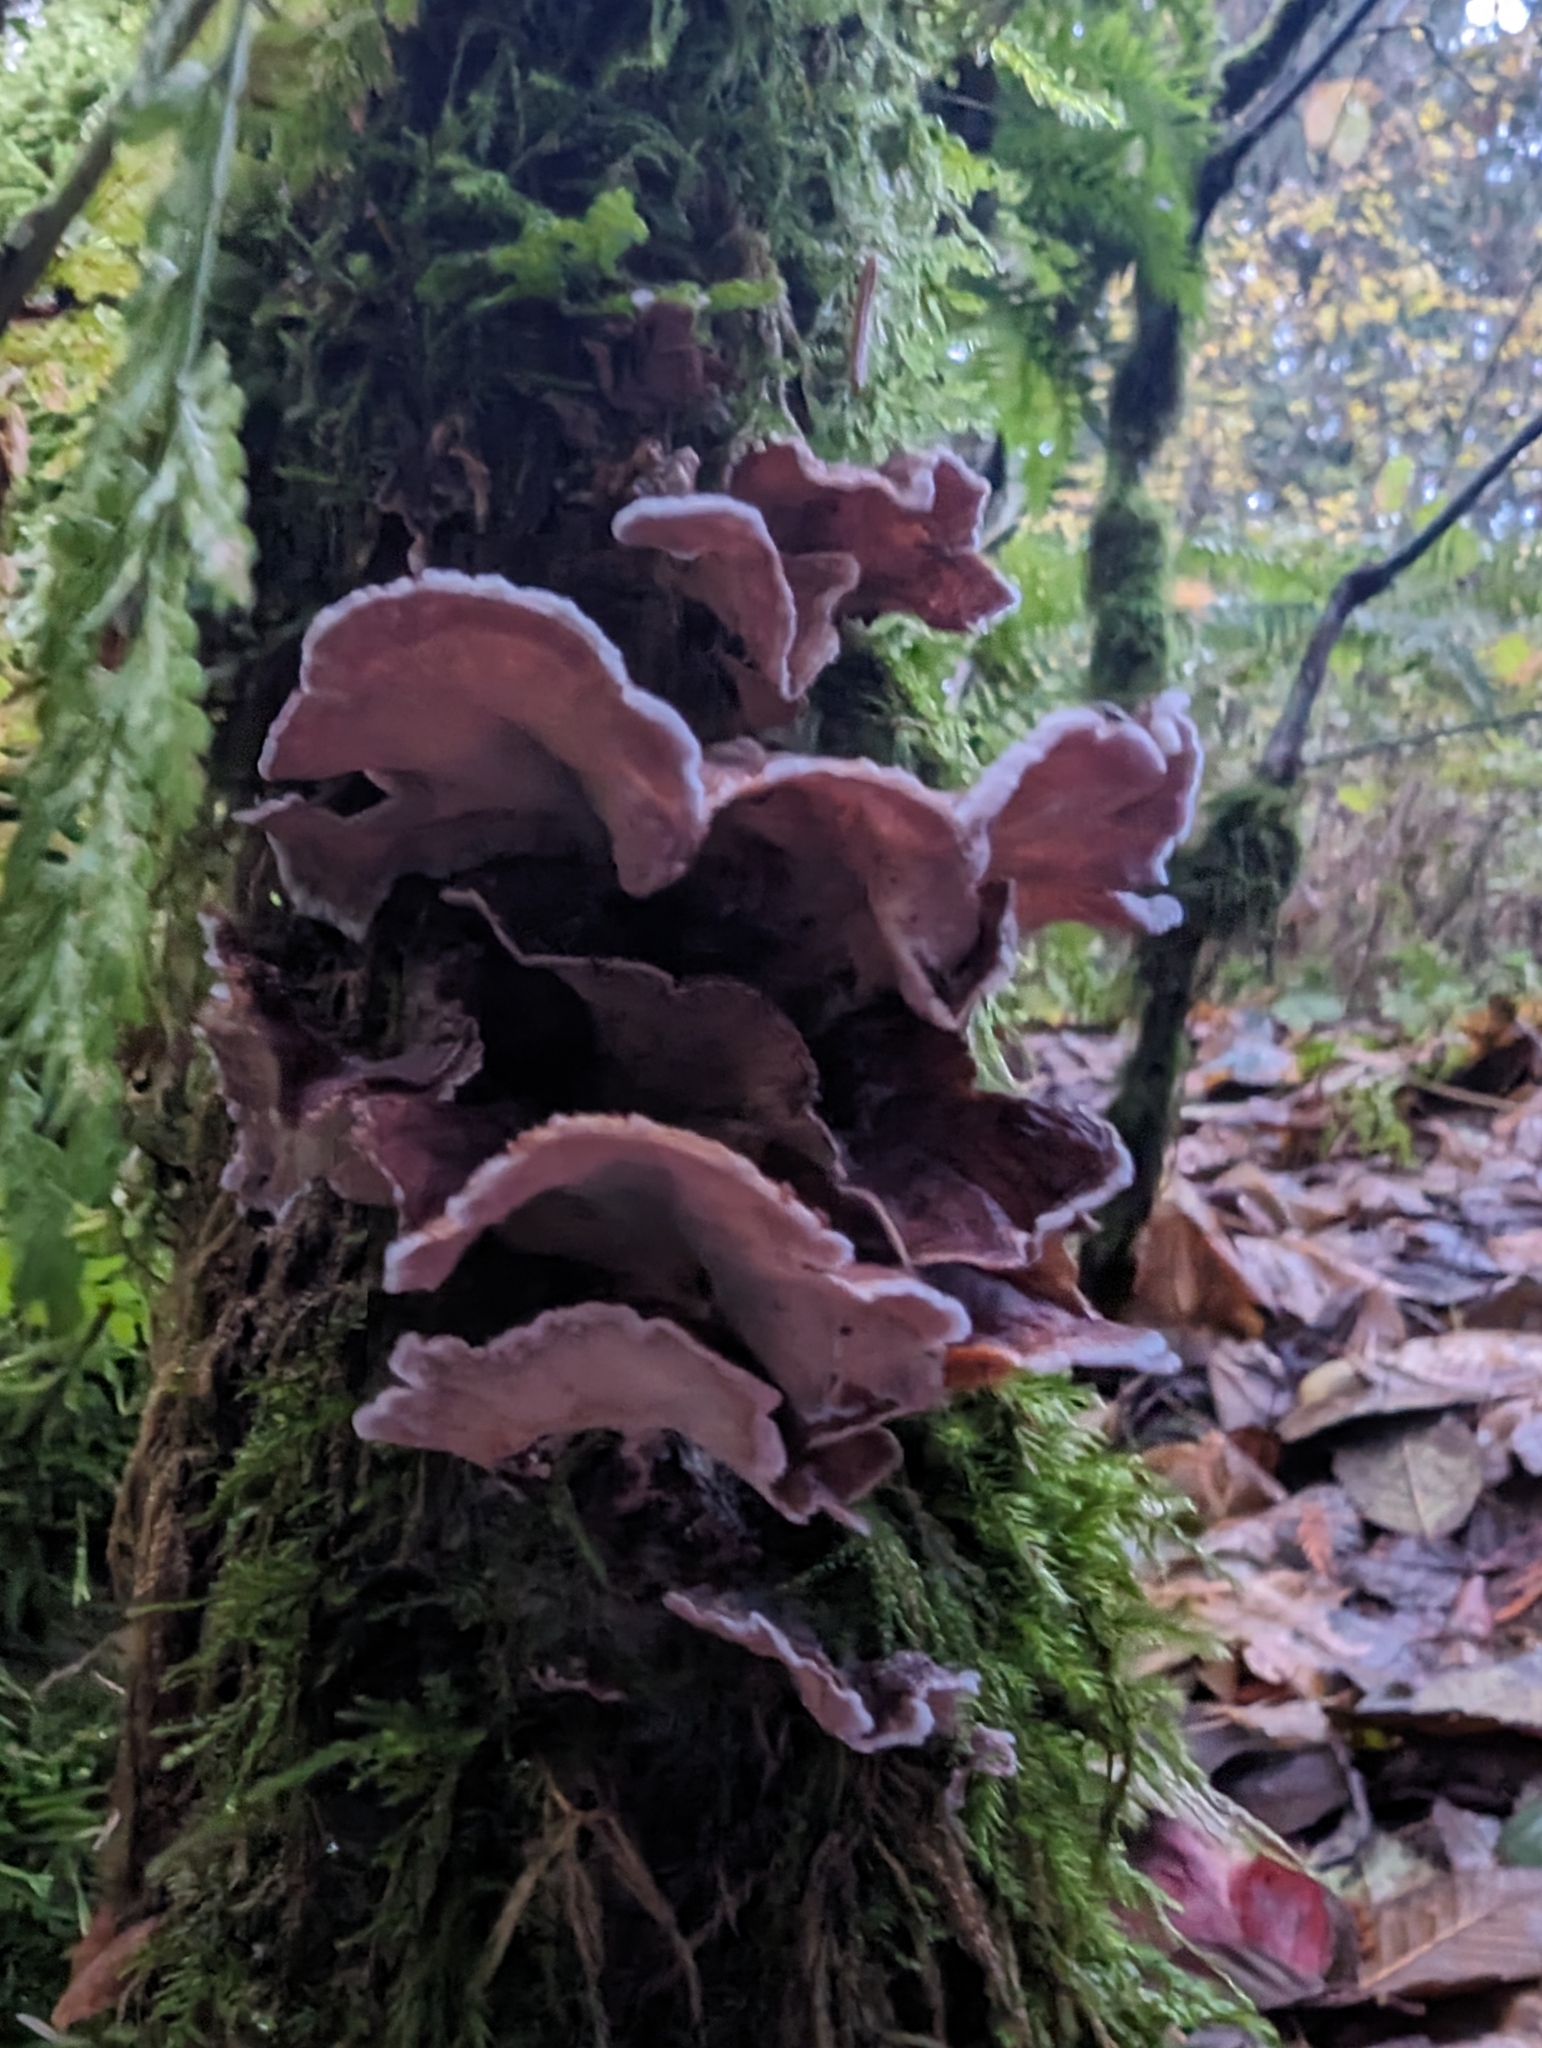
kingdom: Fungi
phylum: Basidiomycota
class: Agaricomycetes
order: Agaricales
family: Cyphellaceae
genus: Chondrostereum
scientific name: Chondrostereum purpureum
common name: Silver leaf disease
